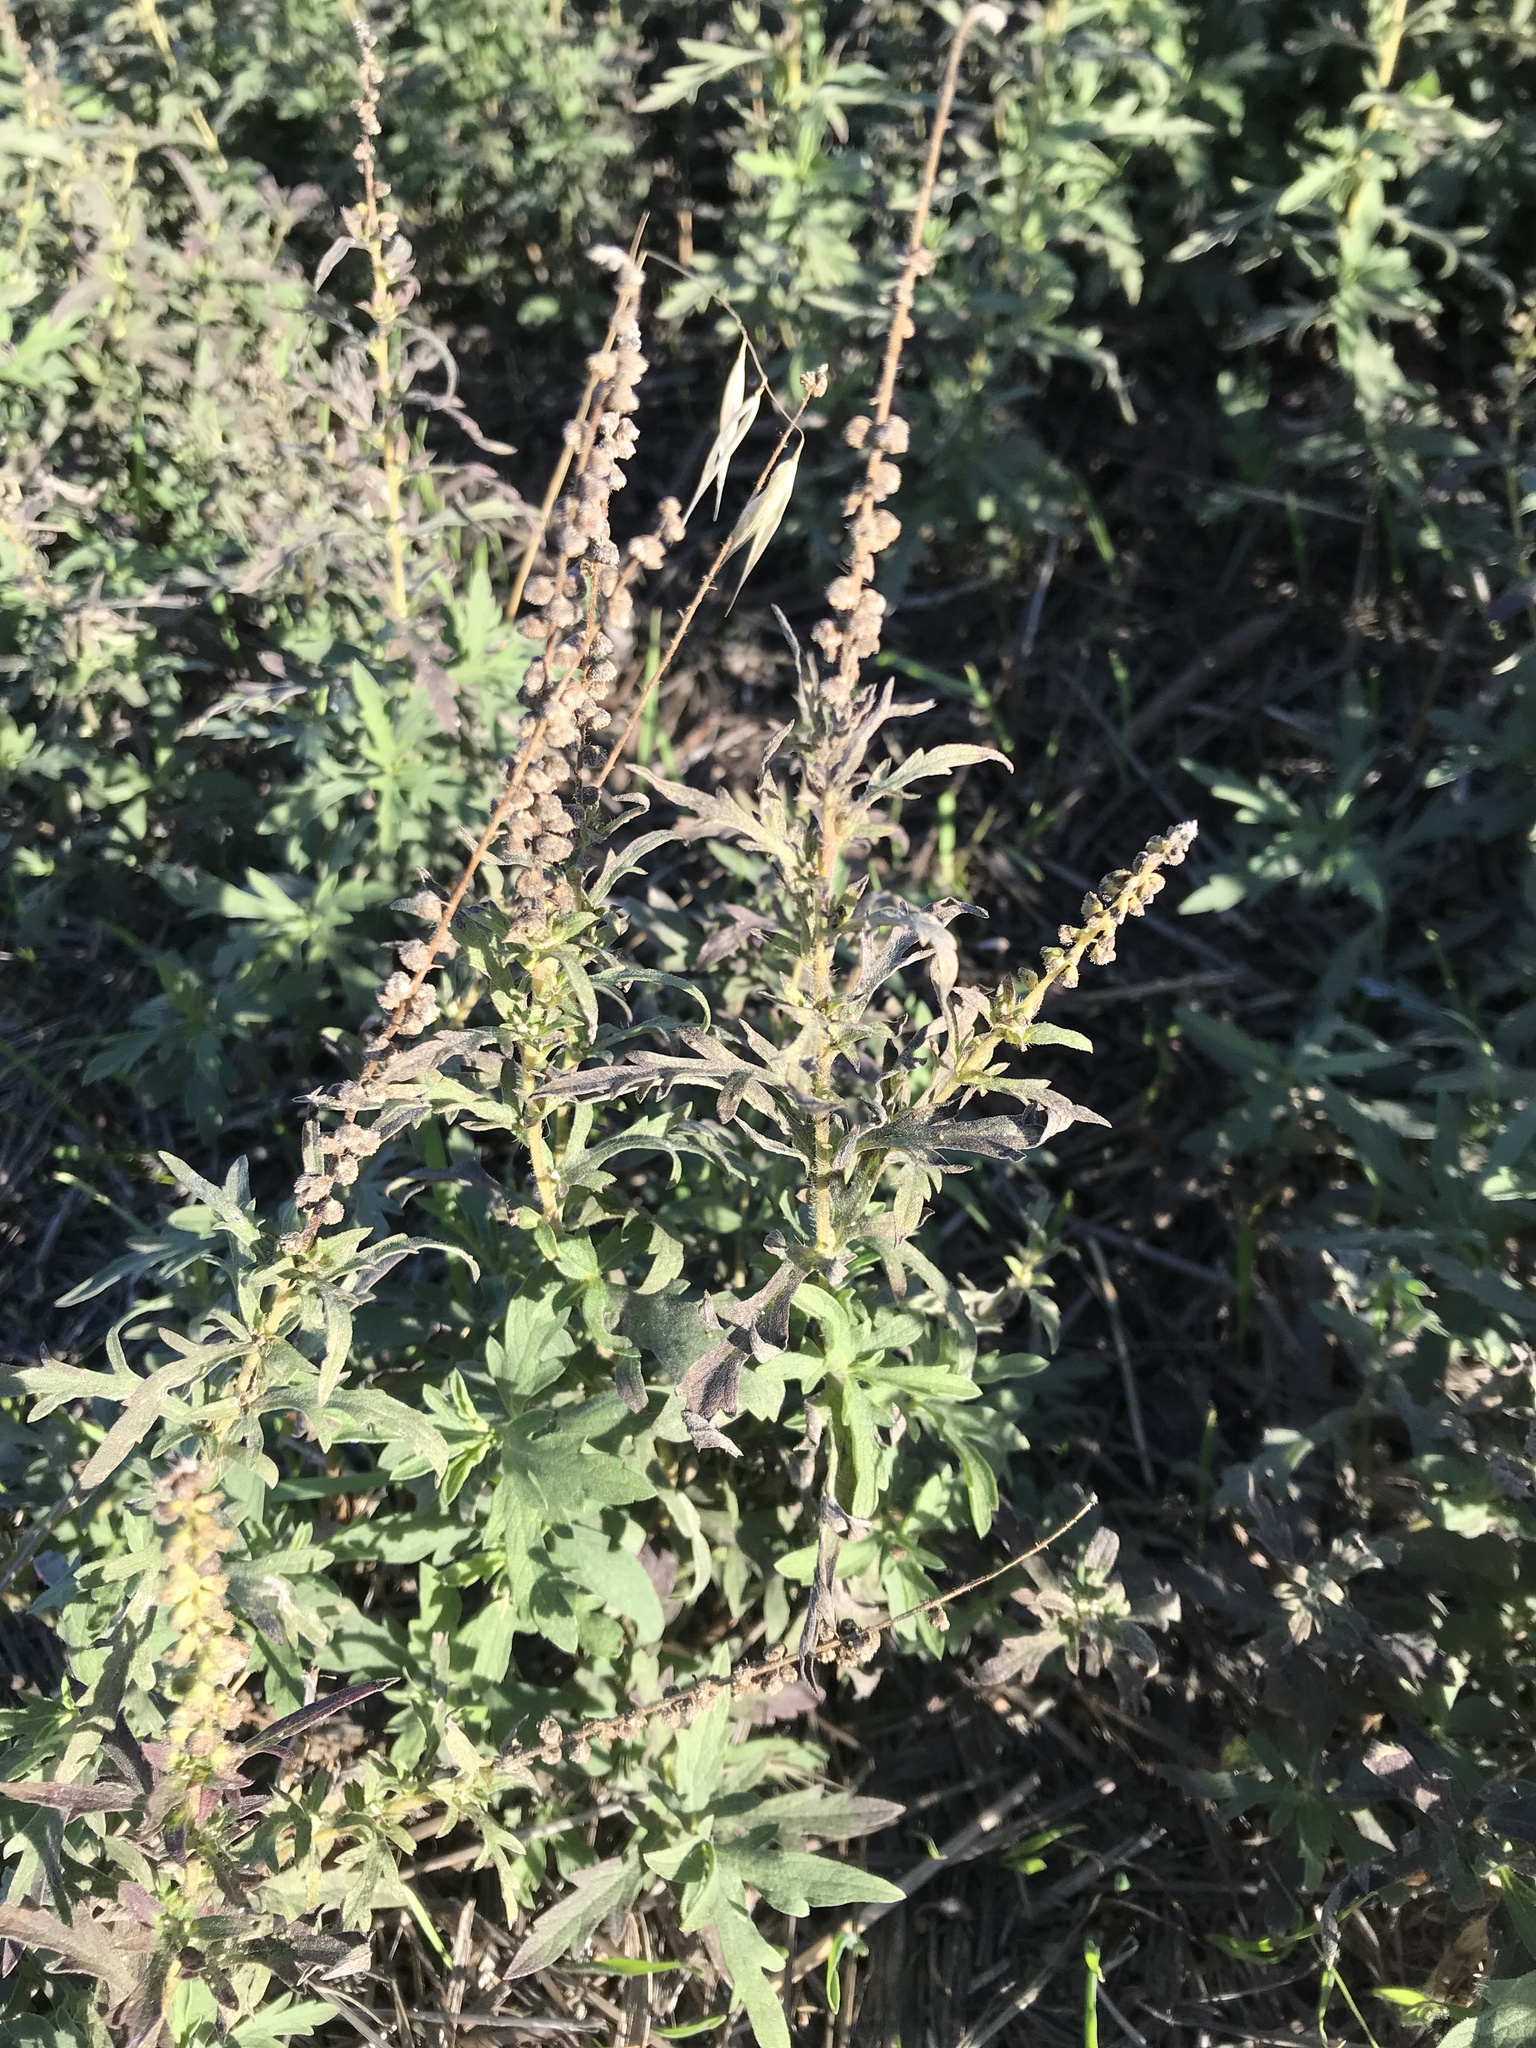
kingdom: Plantae
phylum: Tracheophyta
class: Magnoliopsida
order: Asterales
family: Asteraceae
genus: Ambrosia
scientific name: Ambrosia psilostachya
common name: Perennial ragweed
